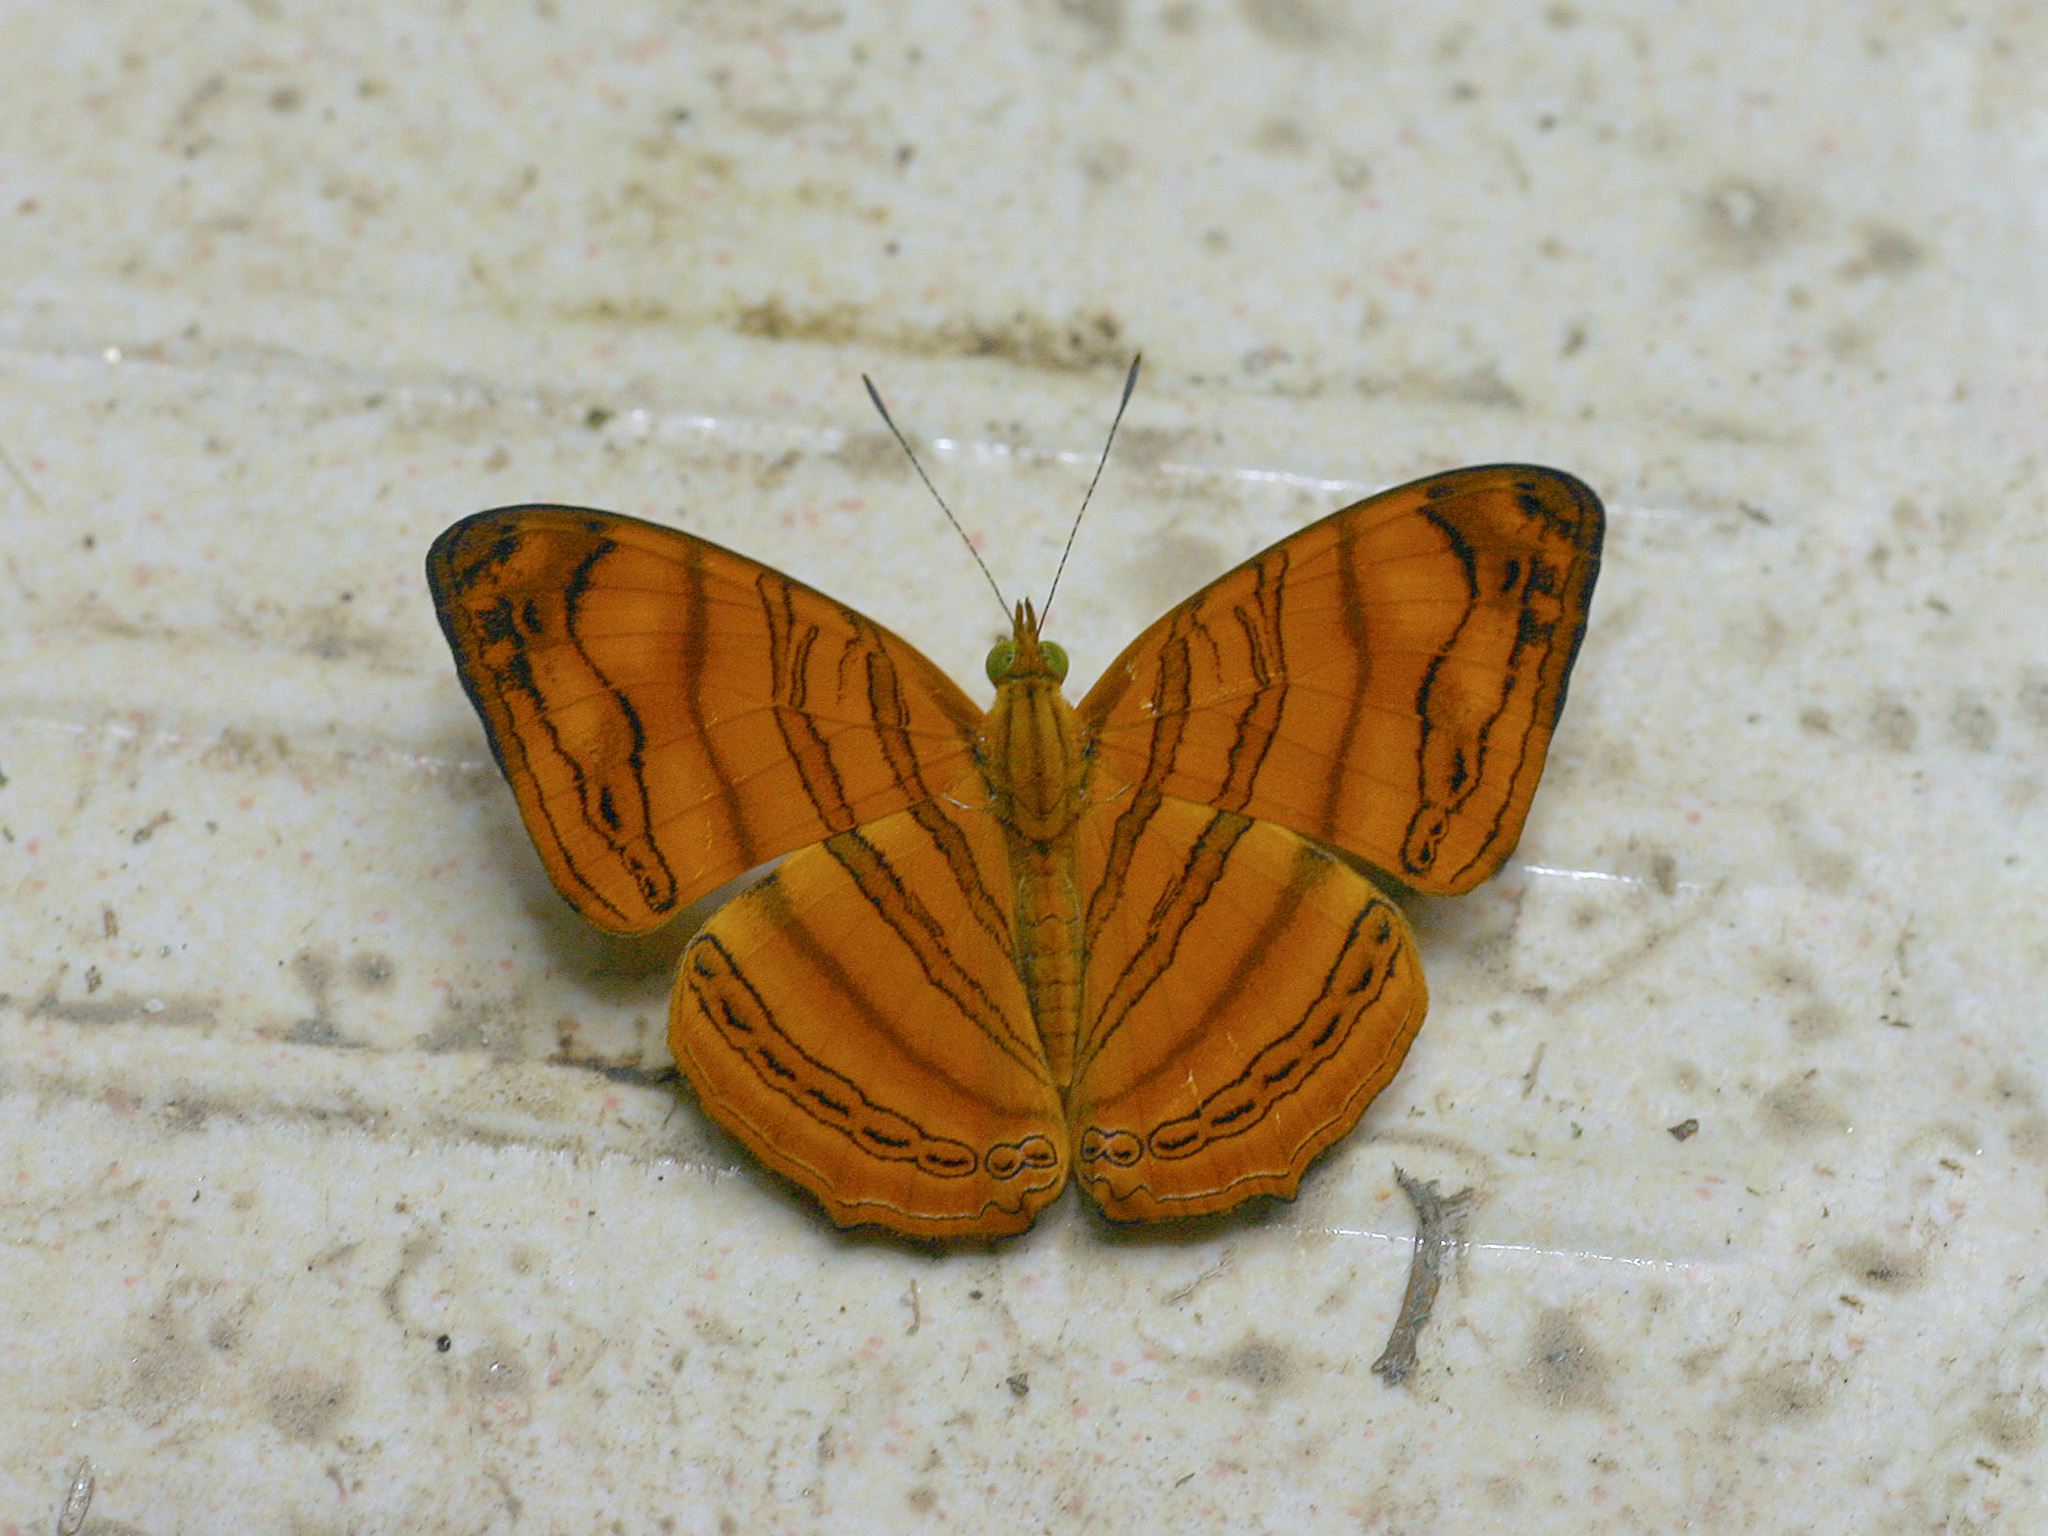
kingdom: Animalia
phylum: Arthropoda
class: Insecta
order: Lepidoptera
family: Nymphalidae
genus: Chersonesia
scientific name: Chersonesia rahria
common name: Wavy maplet
